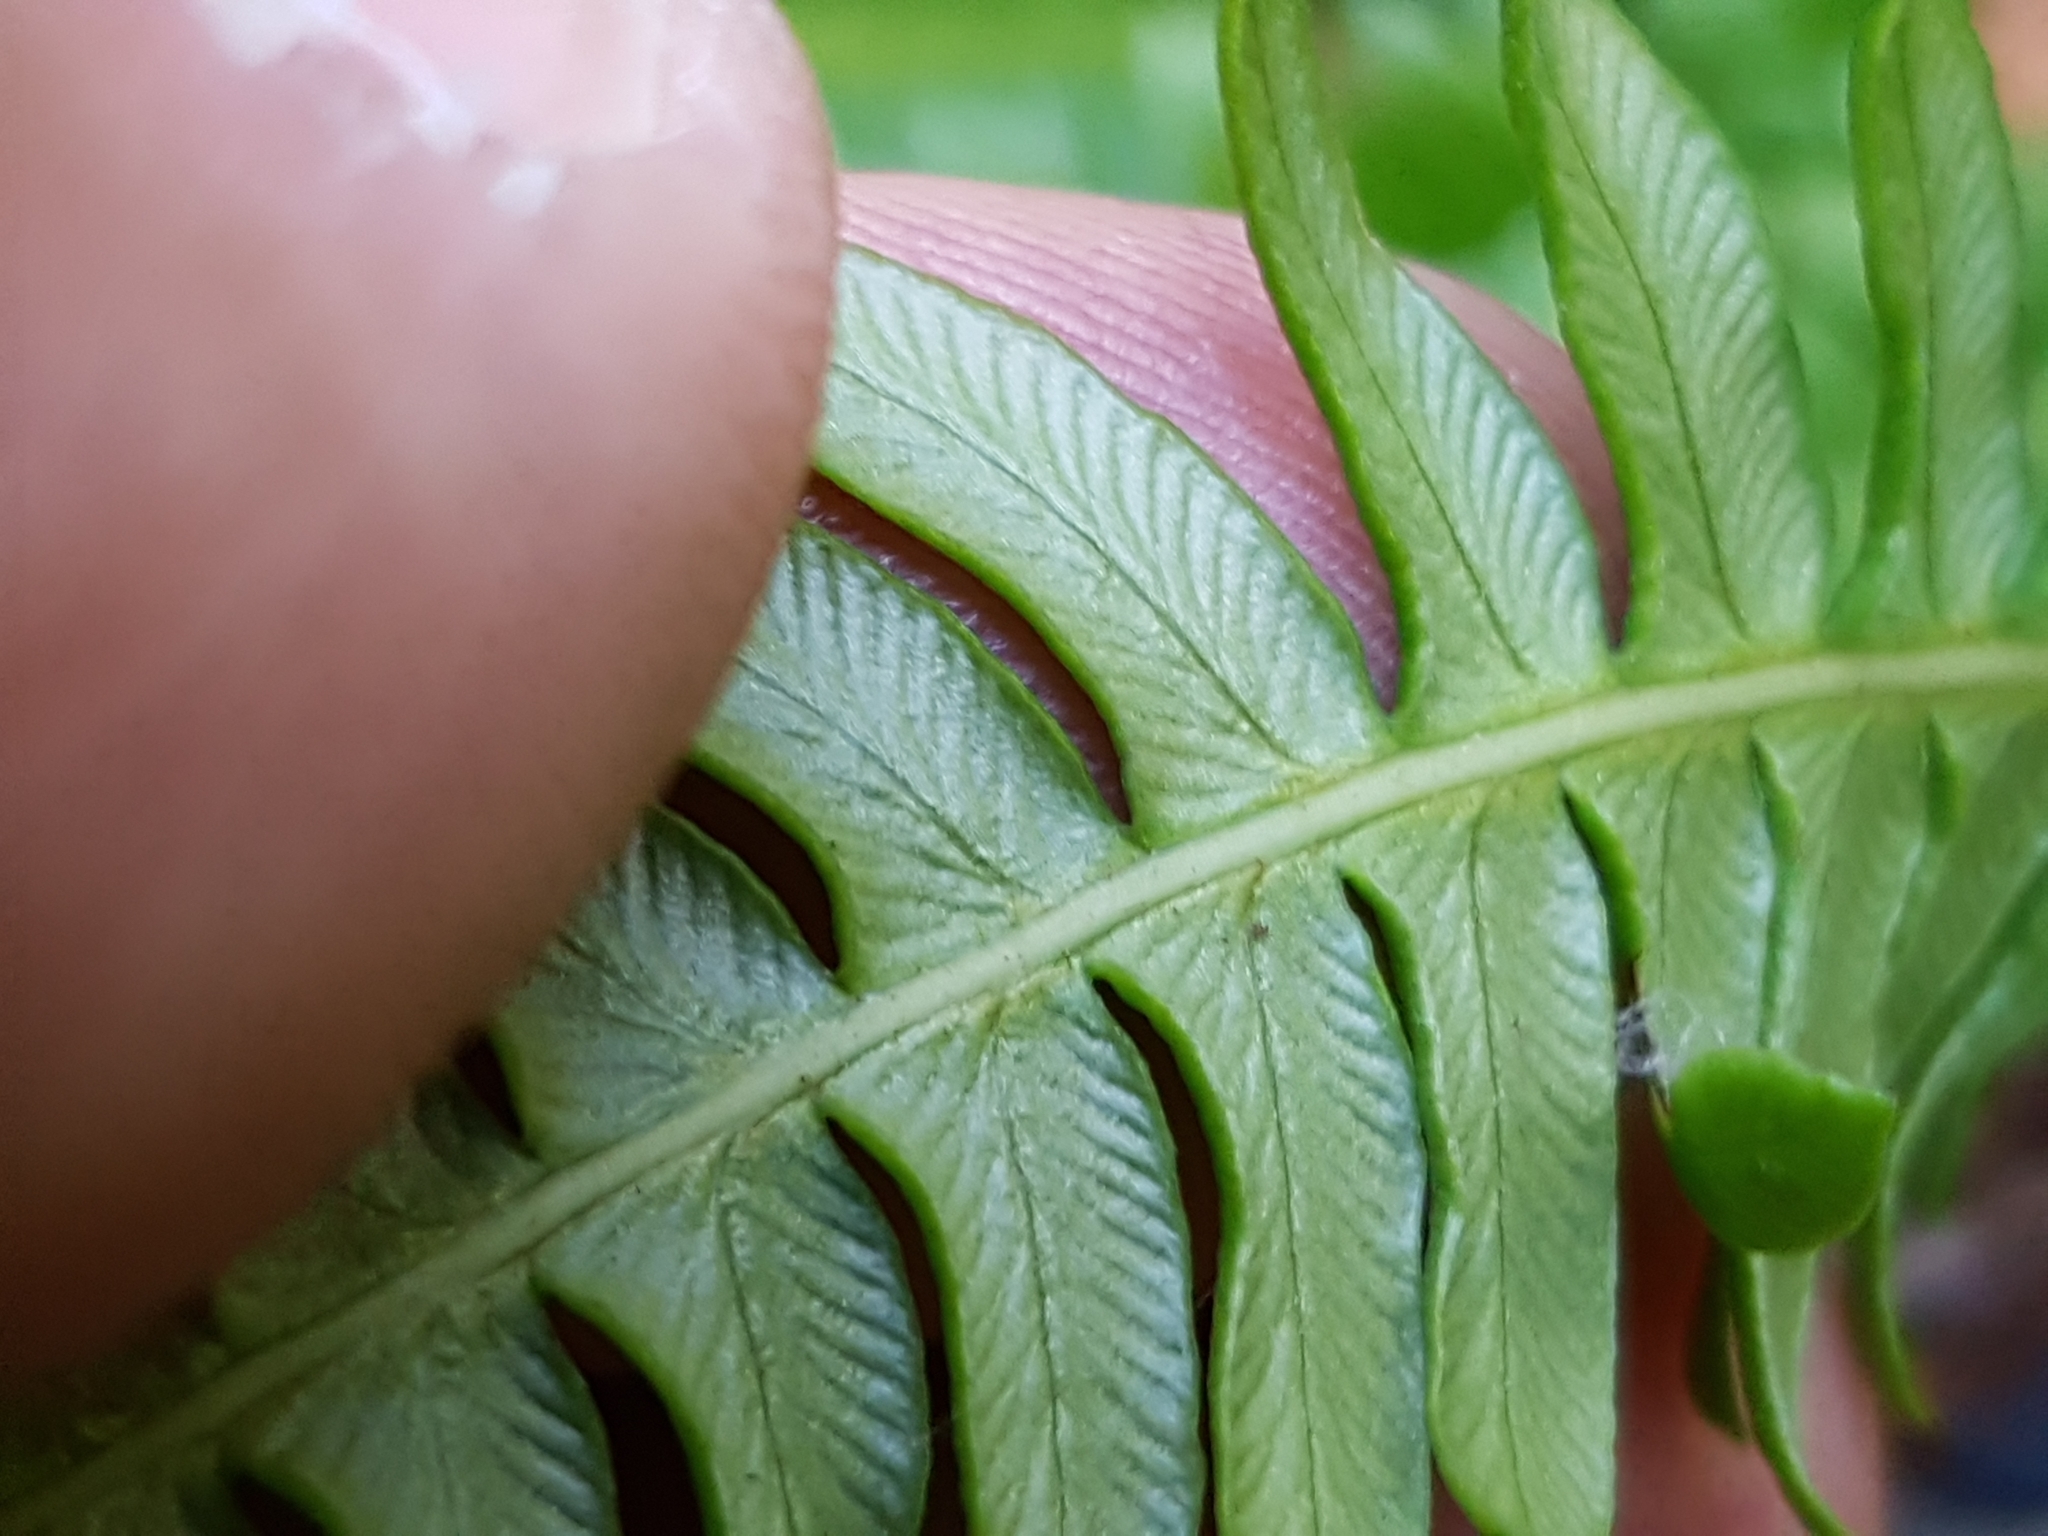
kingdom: Plantae
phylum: Tracheophyta
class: Polypodiopsida
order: Polypodiales
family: Blechnaceae
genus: Struthiopteris
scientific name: Struthiopteris spicant
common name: Deer fern
